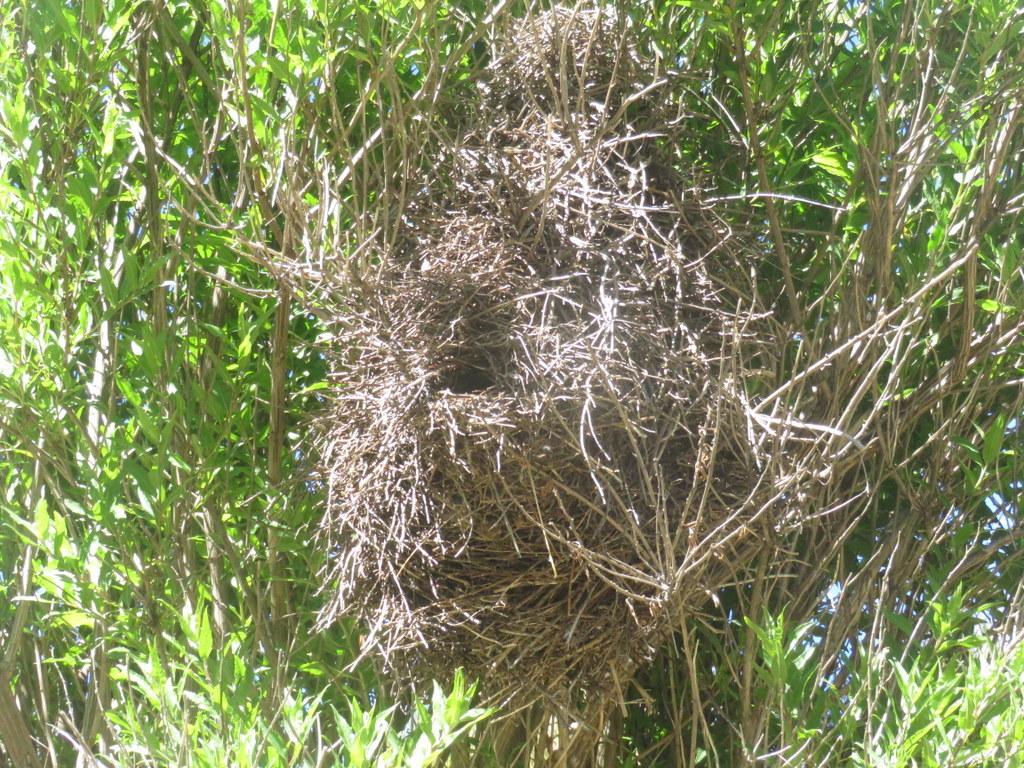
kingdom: Animalia
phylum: Chordata
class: Aves
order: Passeriformes
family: Furnariidae
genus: Phacellodomus
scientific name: Phacellodomus striaticeps
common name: Streak-fronted thornbird
